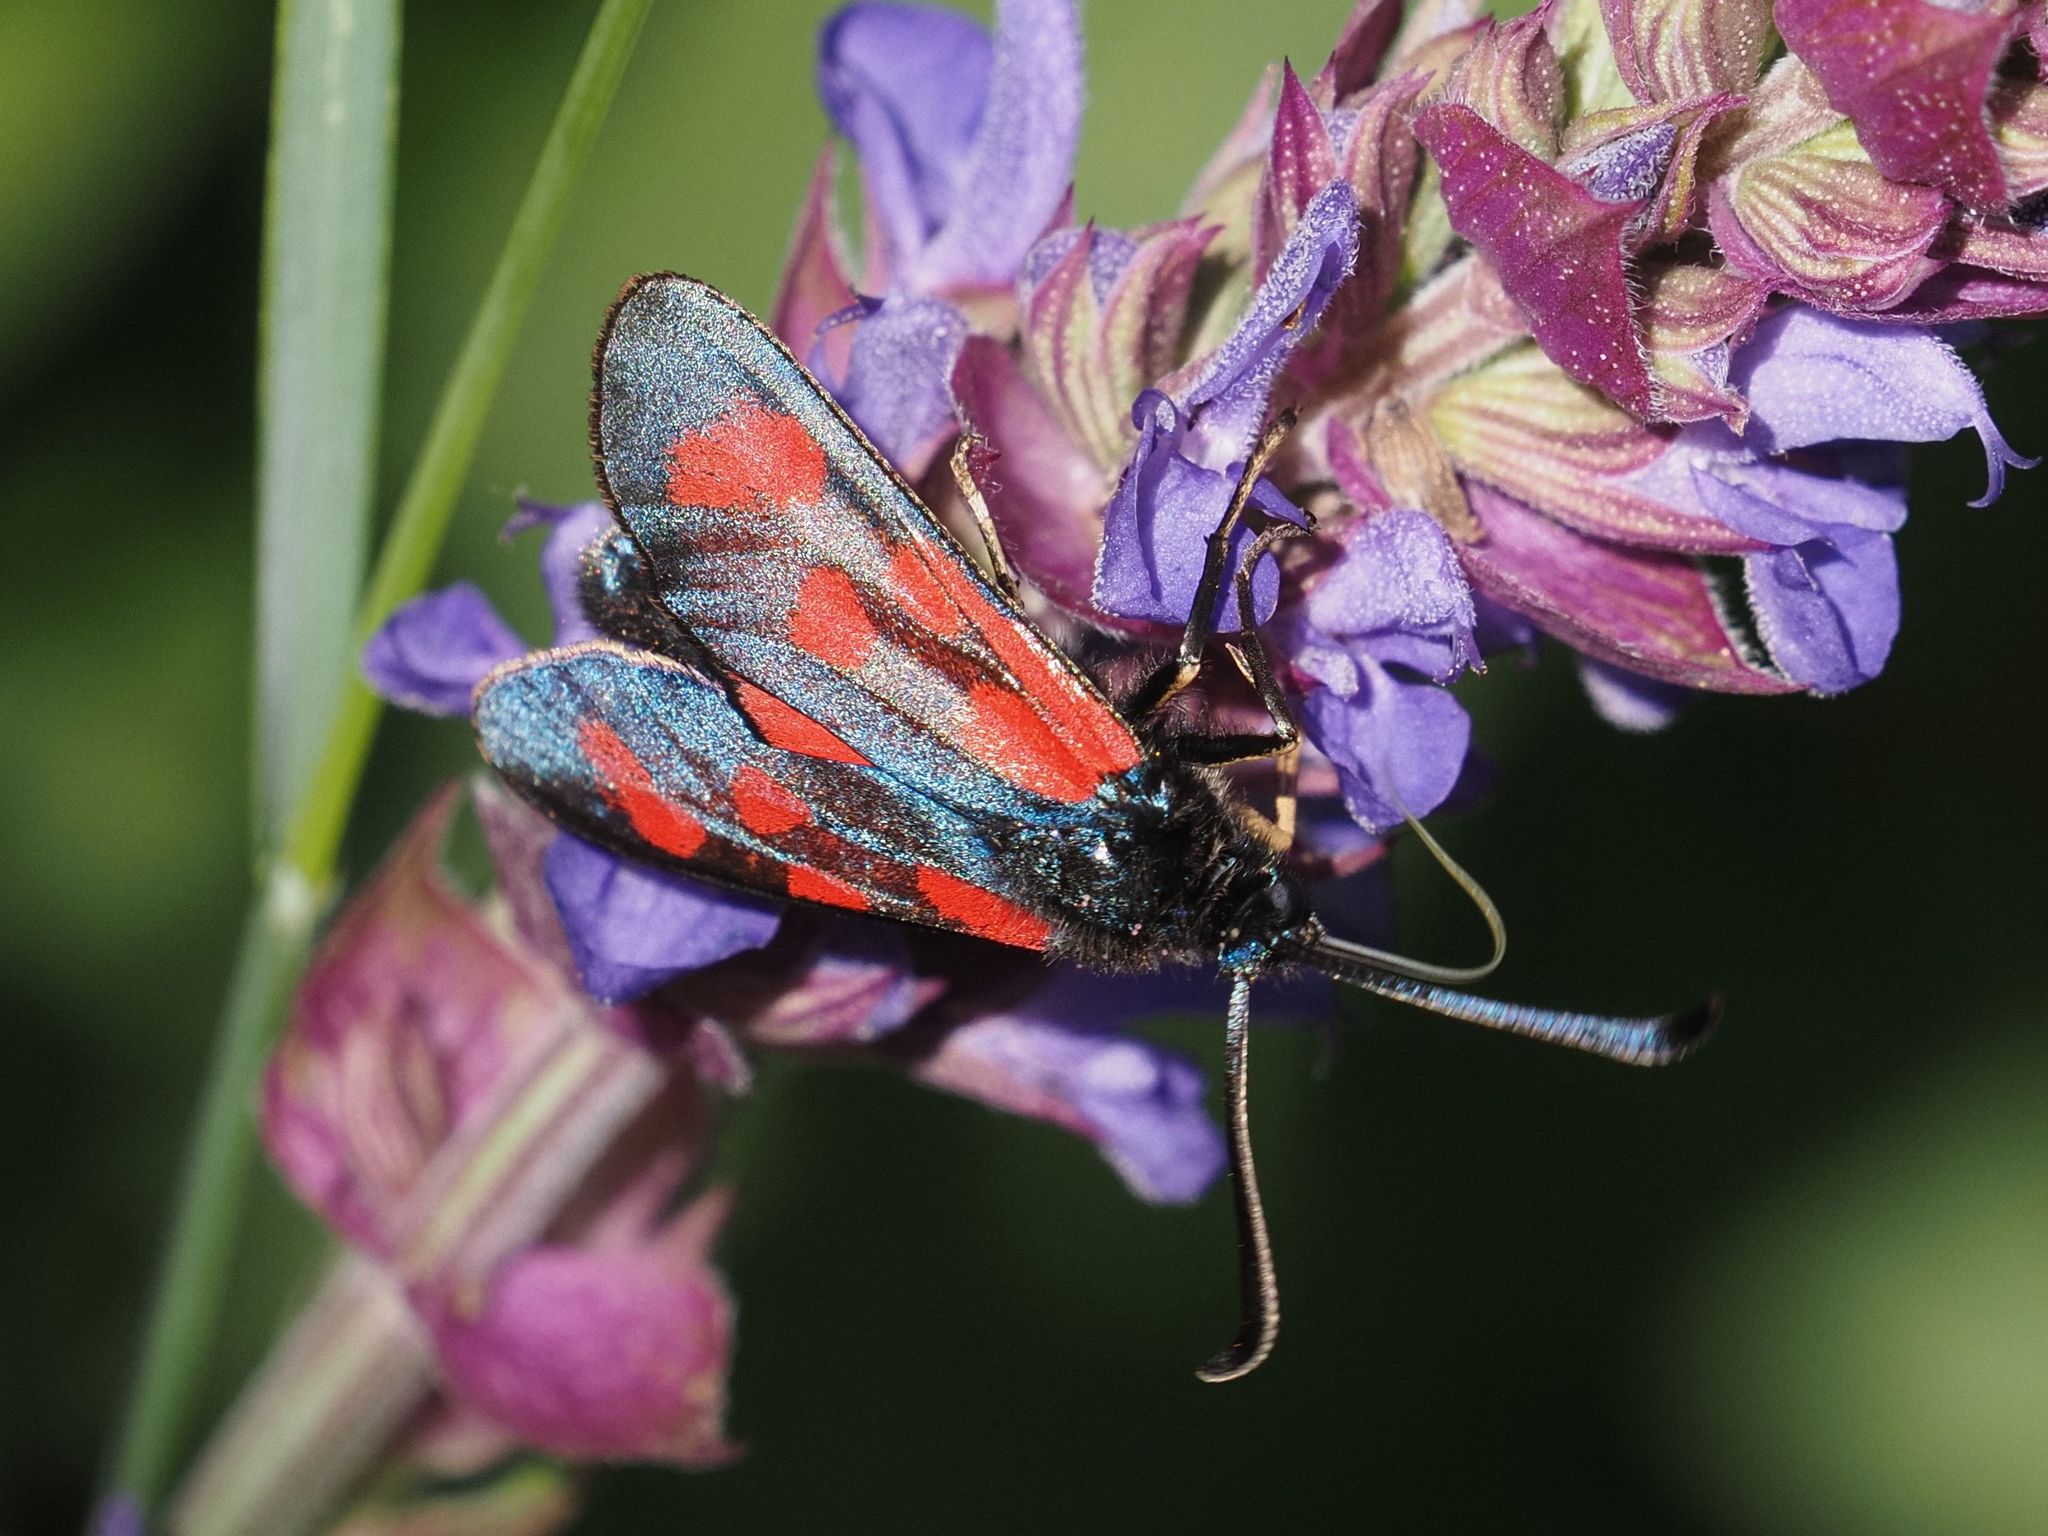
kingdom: Animalia
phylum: Arthropoda
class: Insecta
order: Lepidoptera
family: Zygaenidae
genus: Zygaena
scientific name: Zygaena loti
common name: Slender scotch burnet
